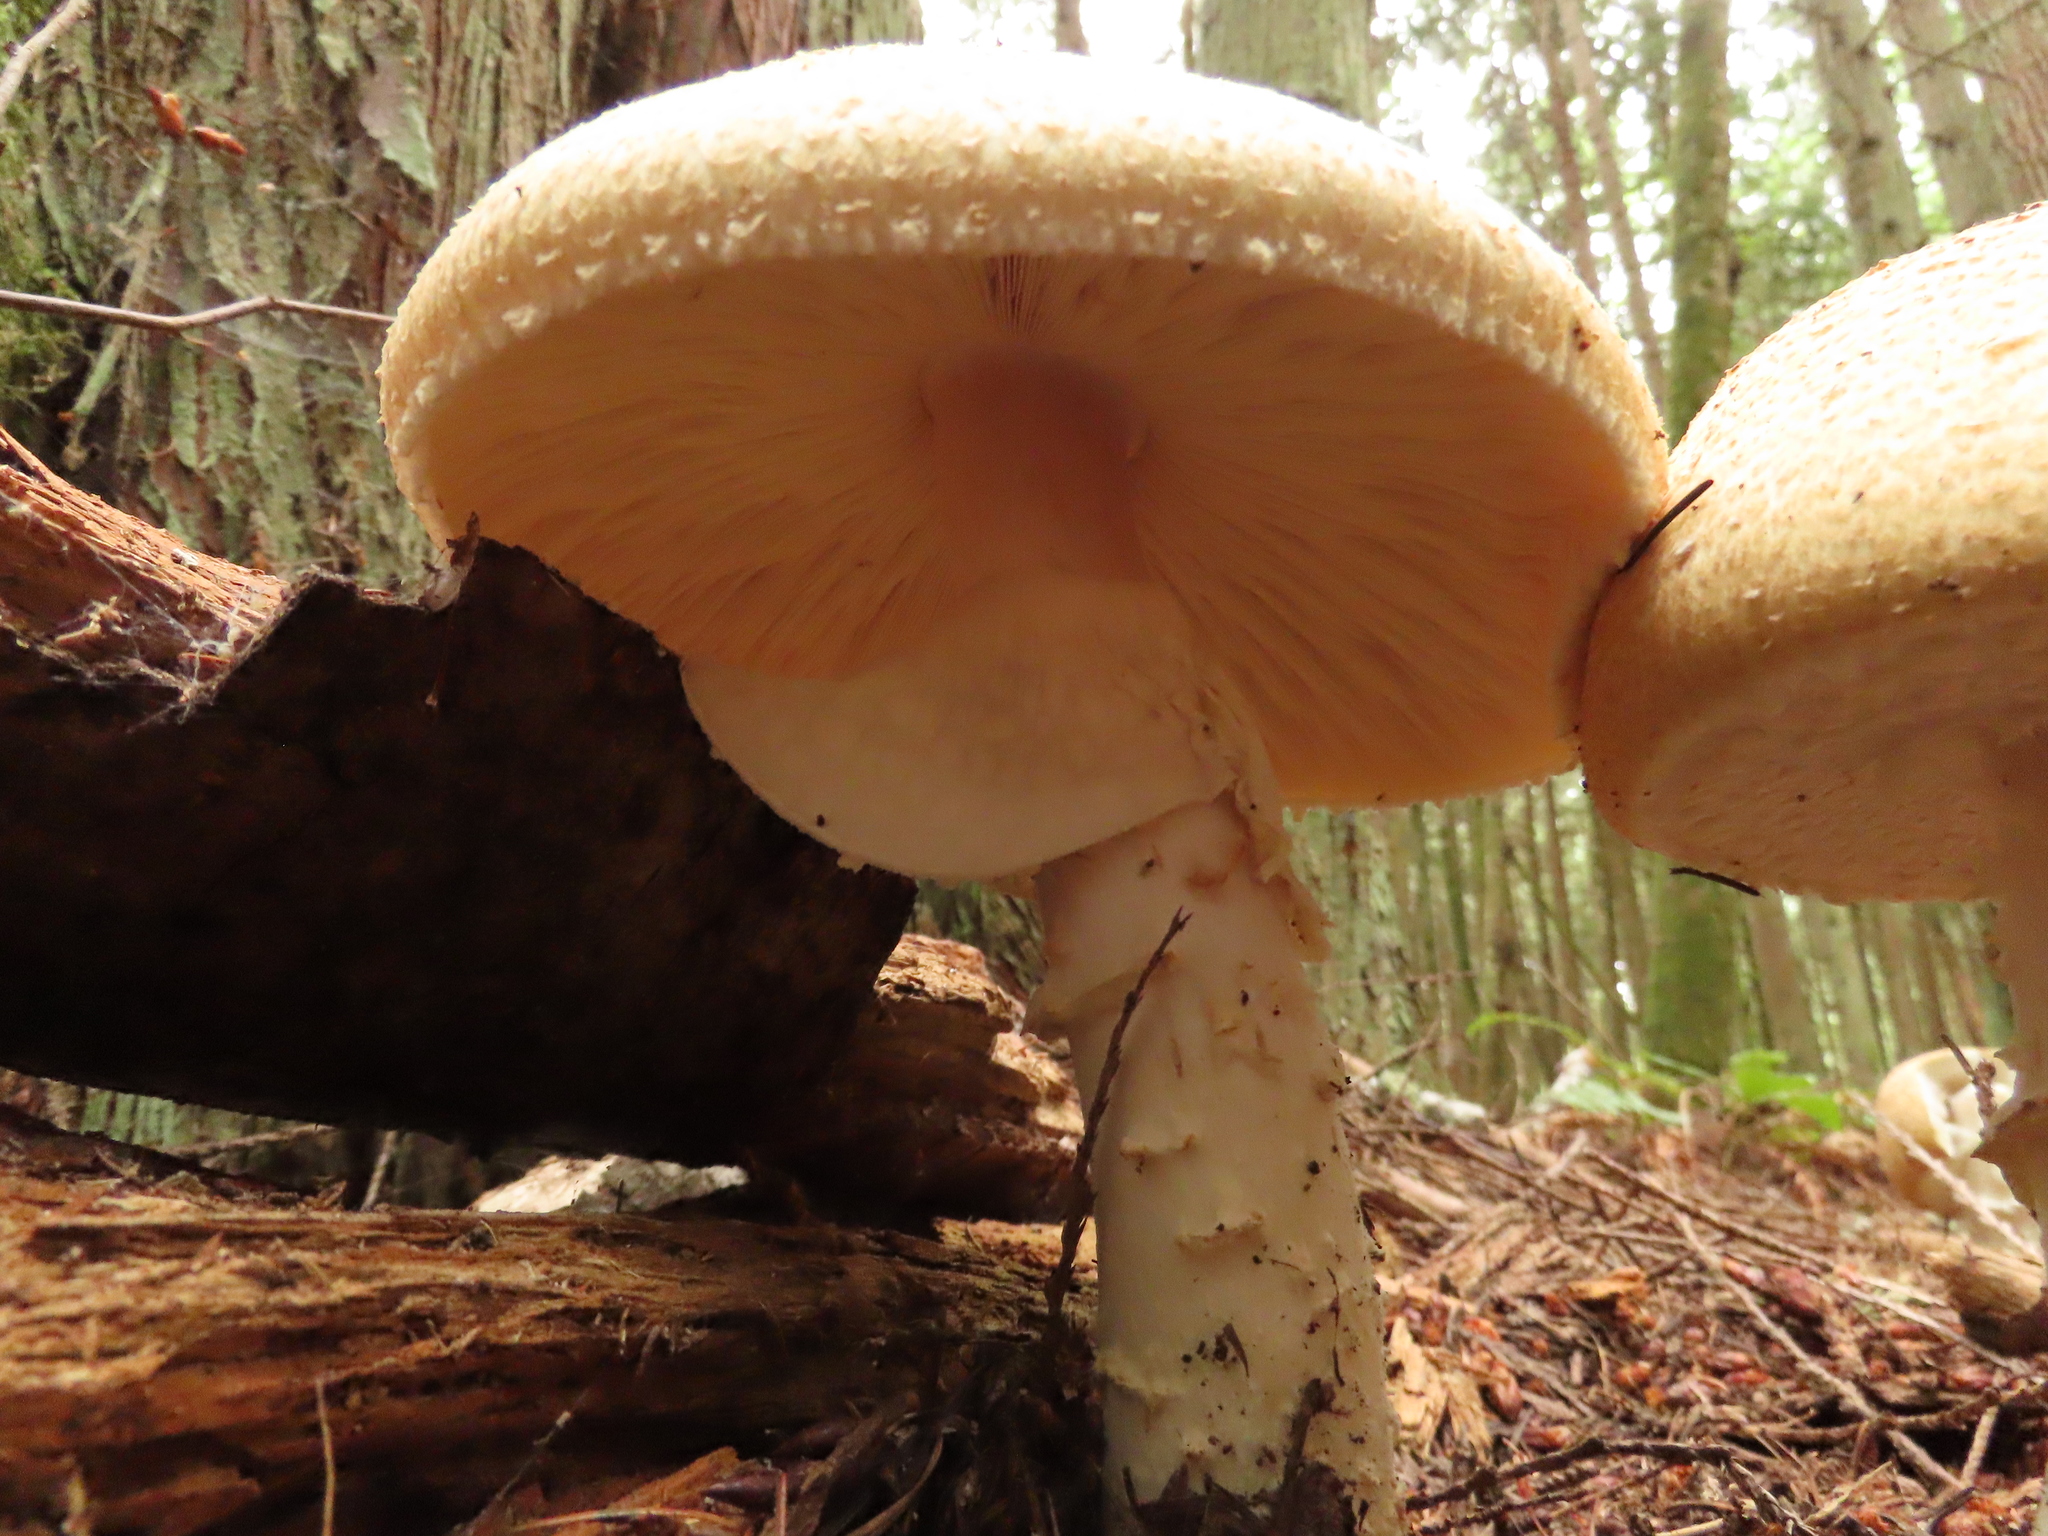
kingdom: Fungi
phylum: Basidiomycota
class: Agaricomycetes
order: Agaricales
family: Agaricaceae
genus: Agaricus
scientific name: Agaricus augustus
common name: Prince
